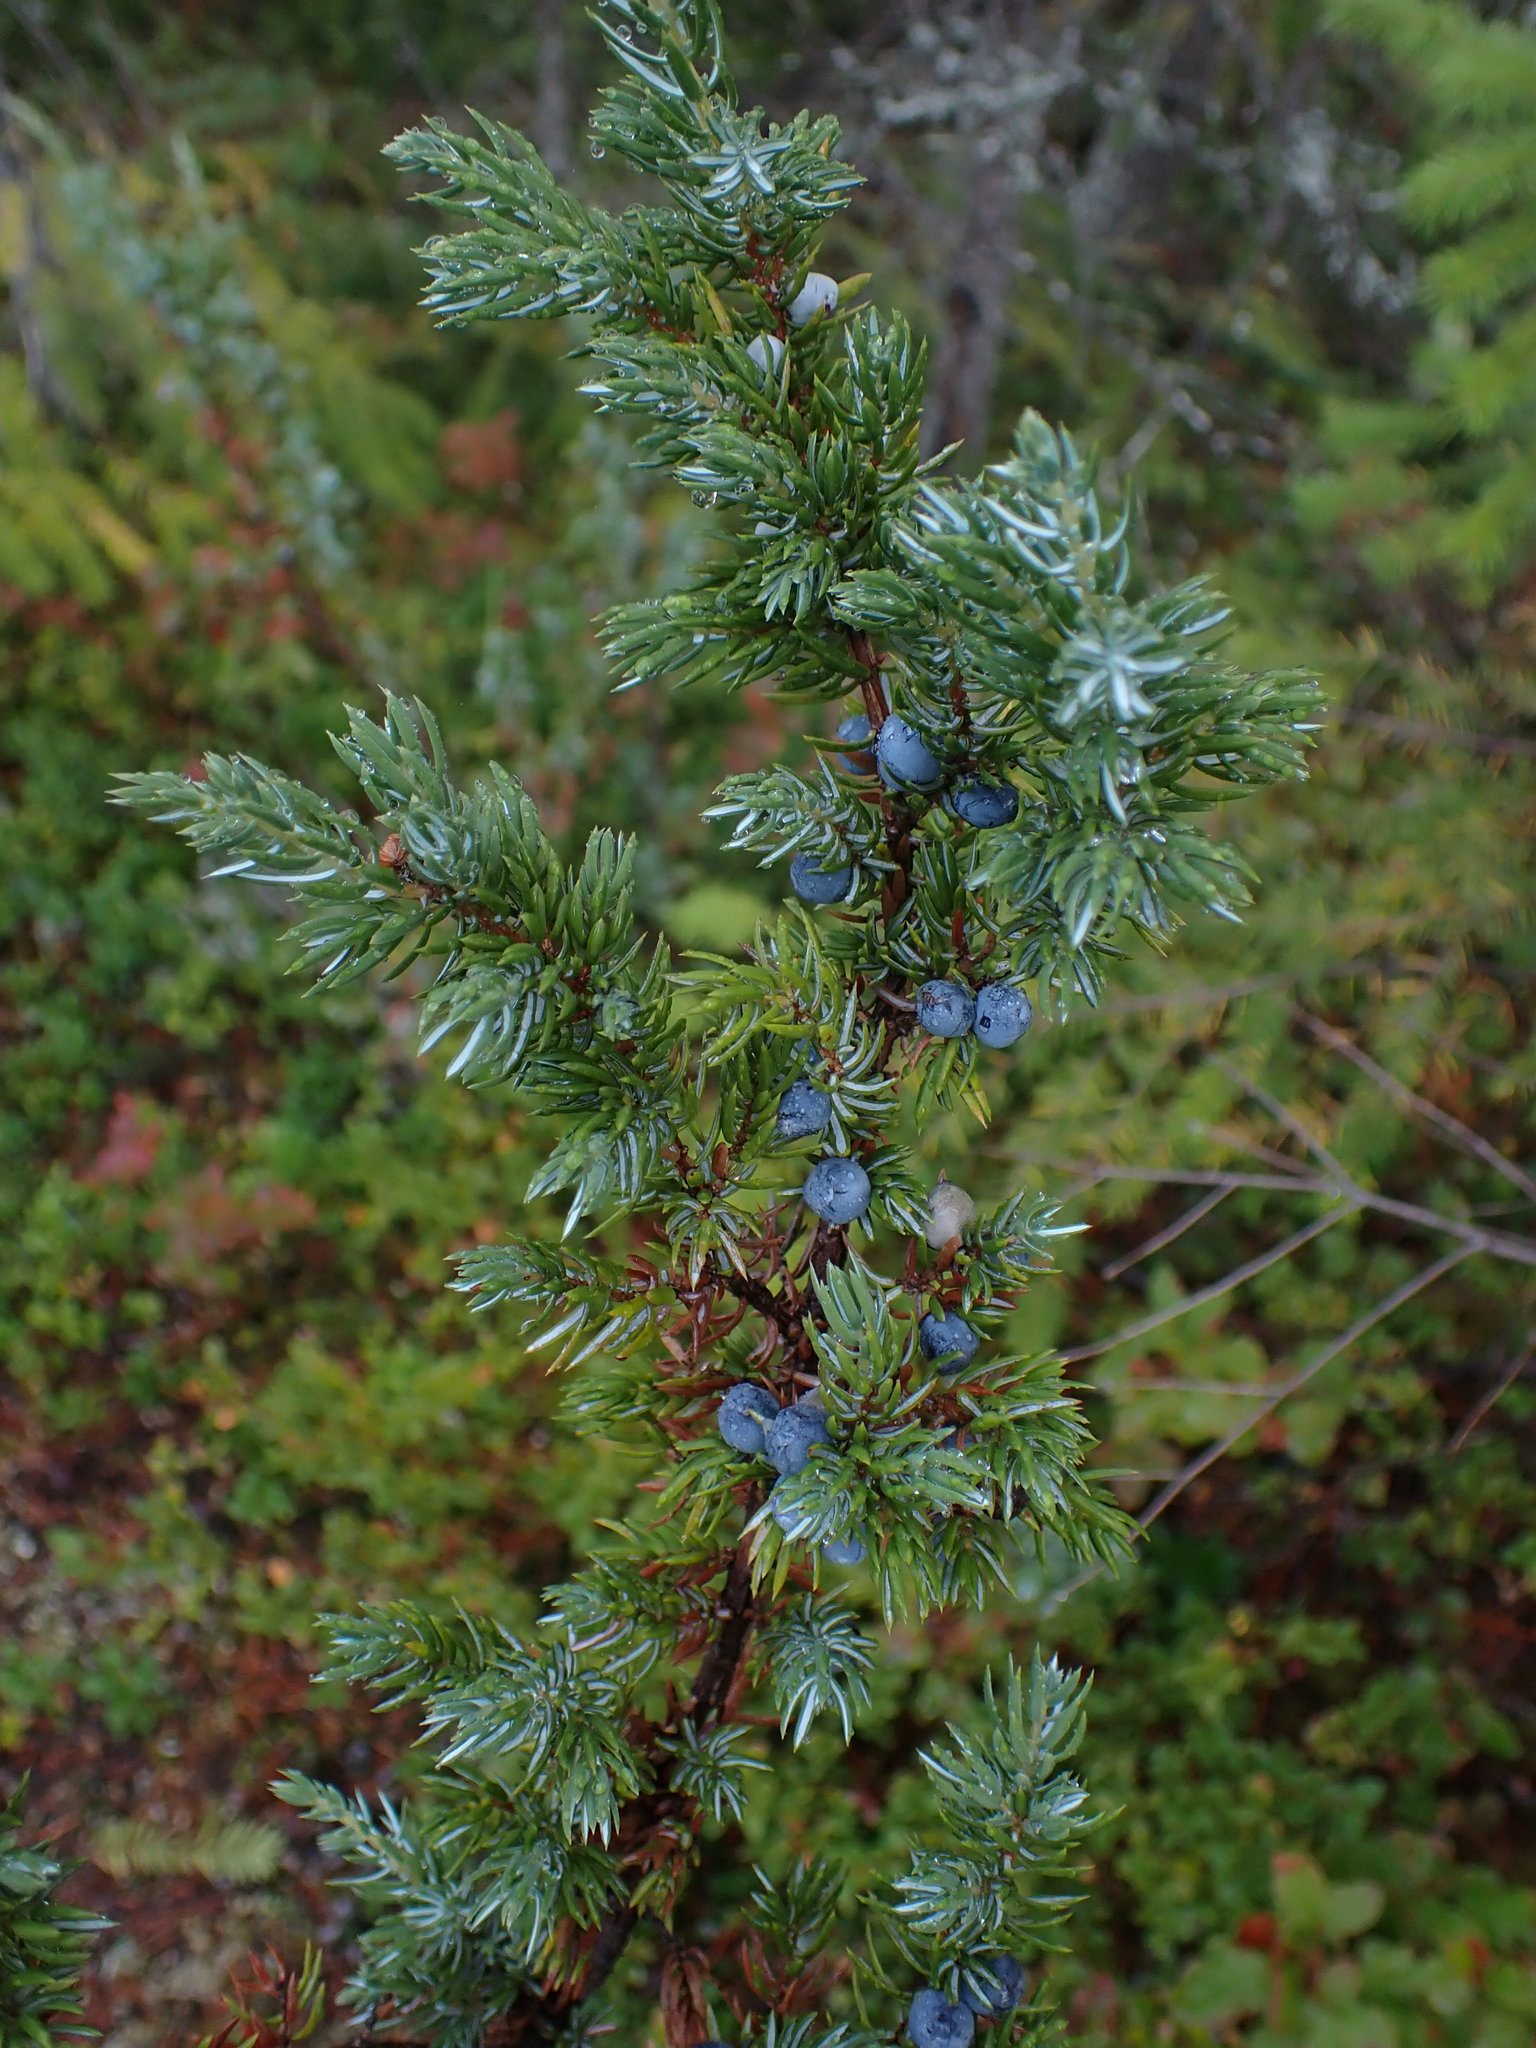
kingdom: Plantae
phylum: Tracheophyta
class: Pinopsida
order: Pinales
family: Cupressaceae
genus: Juniperus
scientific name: Juniperus communis
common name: Common juniper
